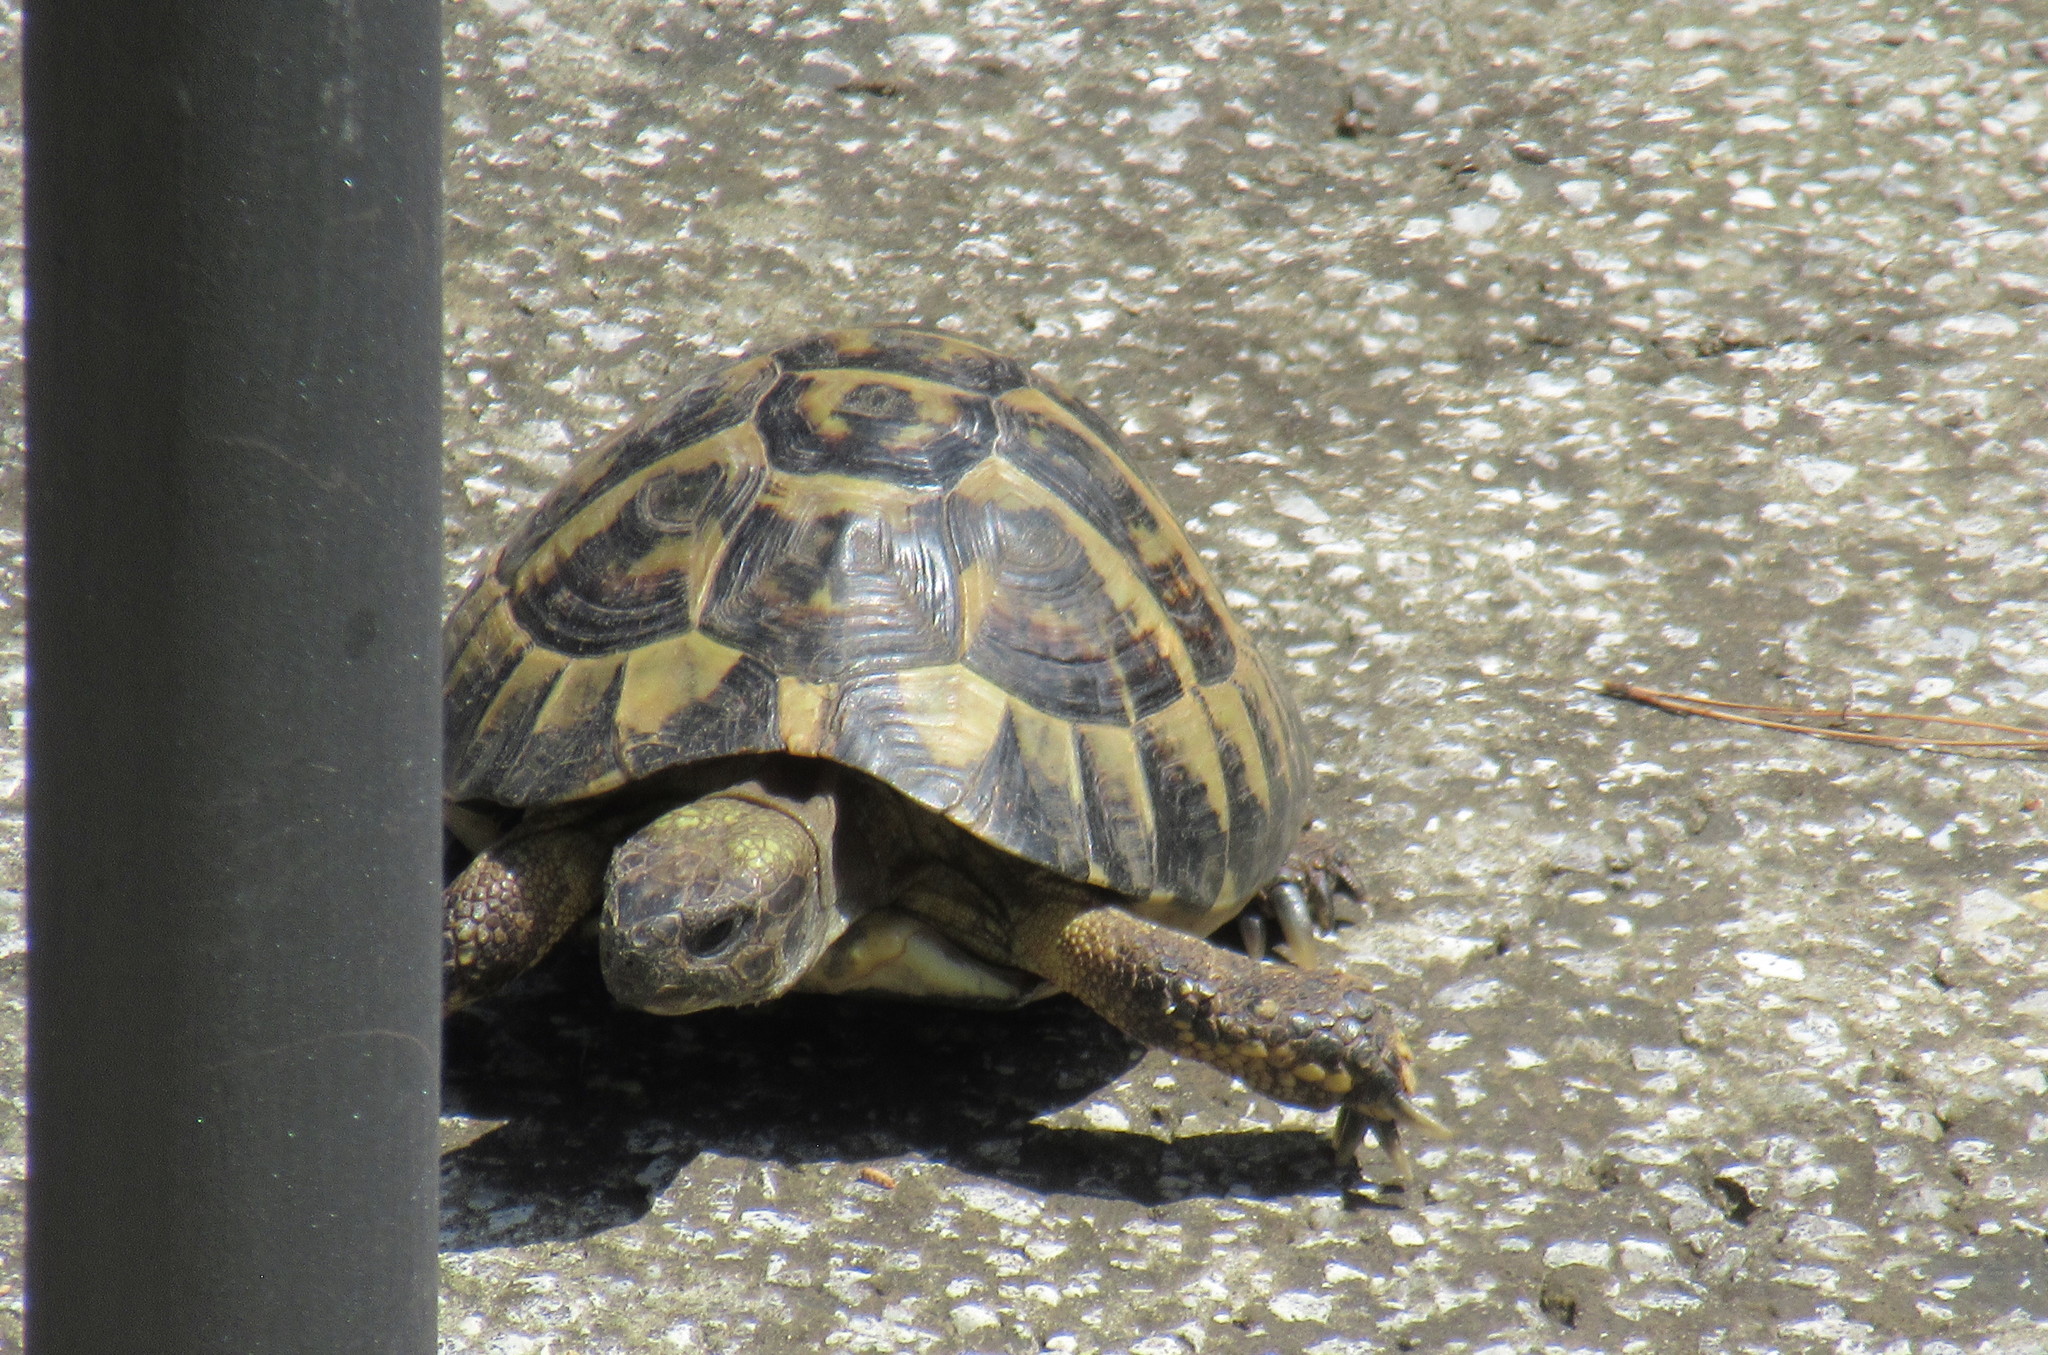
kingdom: Animalia
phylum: Chordata
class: Testudines
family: Testudinidae
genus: Testudo
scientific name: Testudo hermanni
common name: Hermann's tortoise
